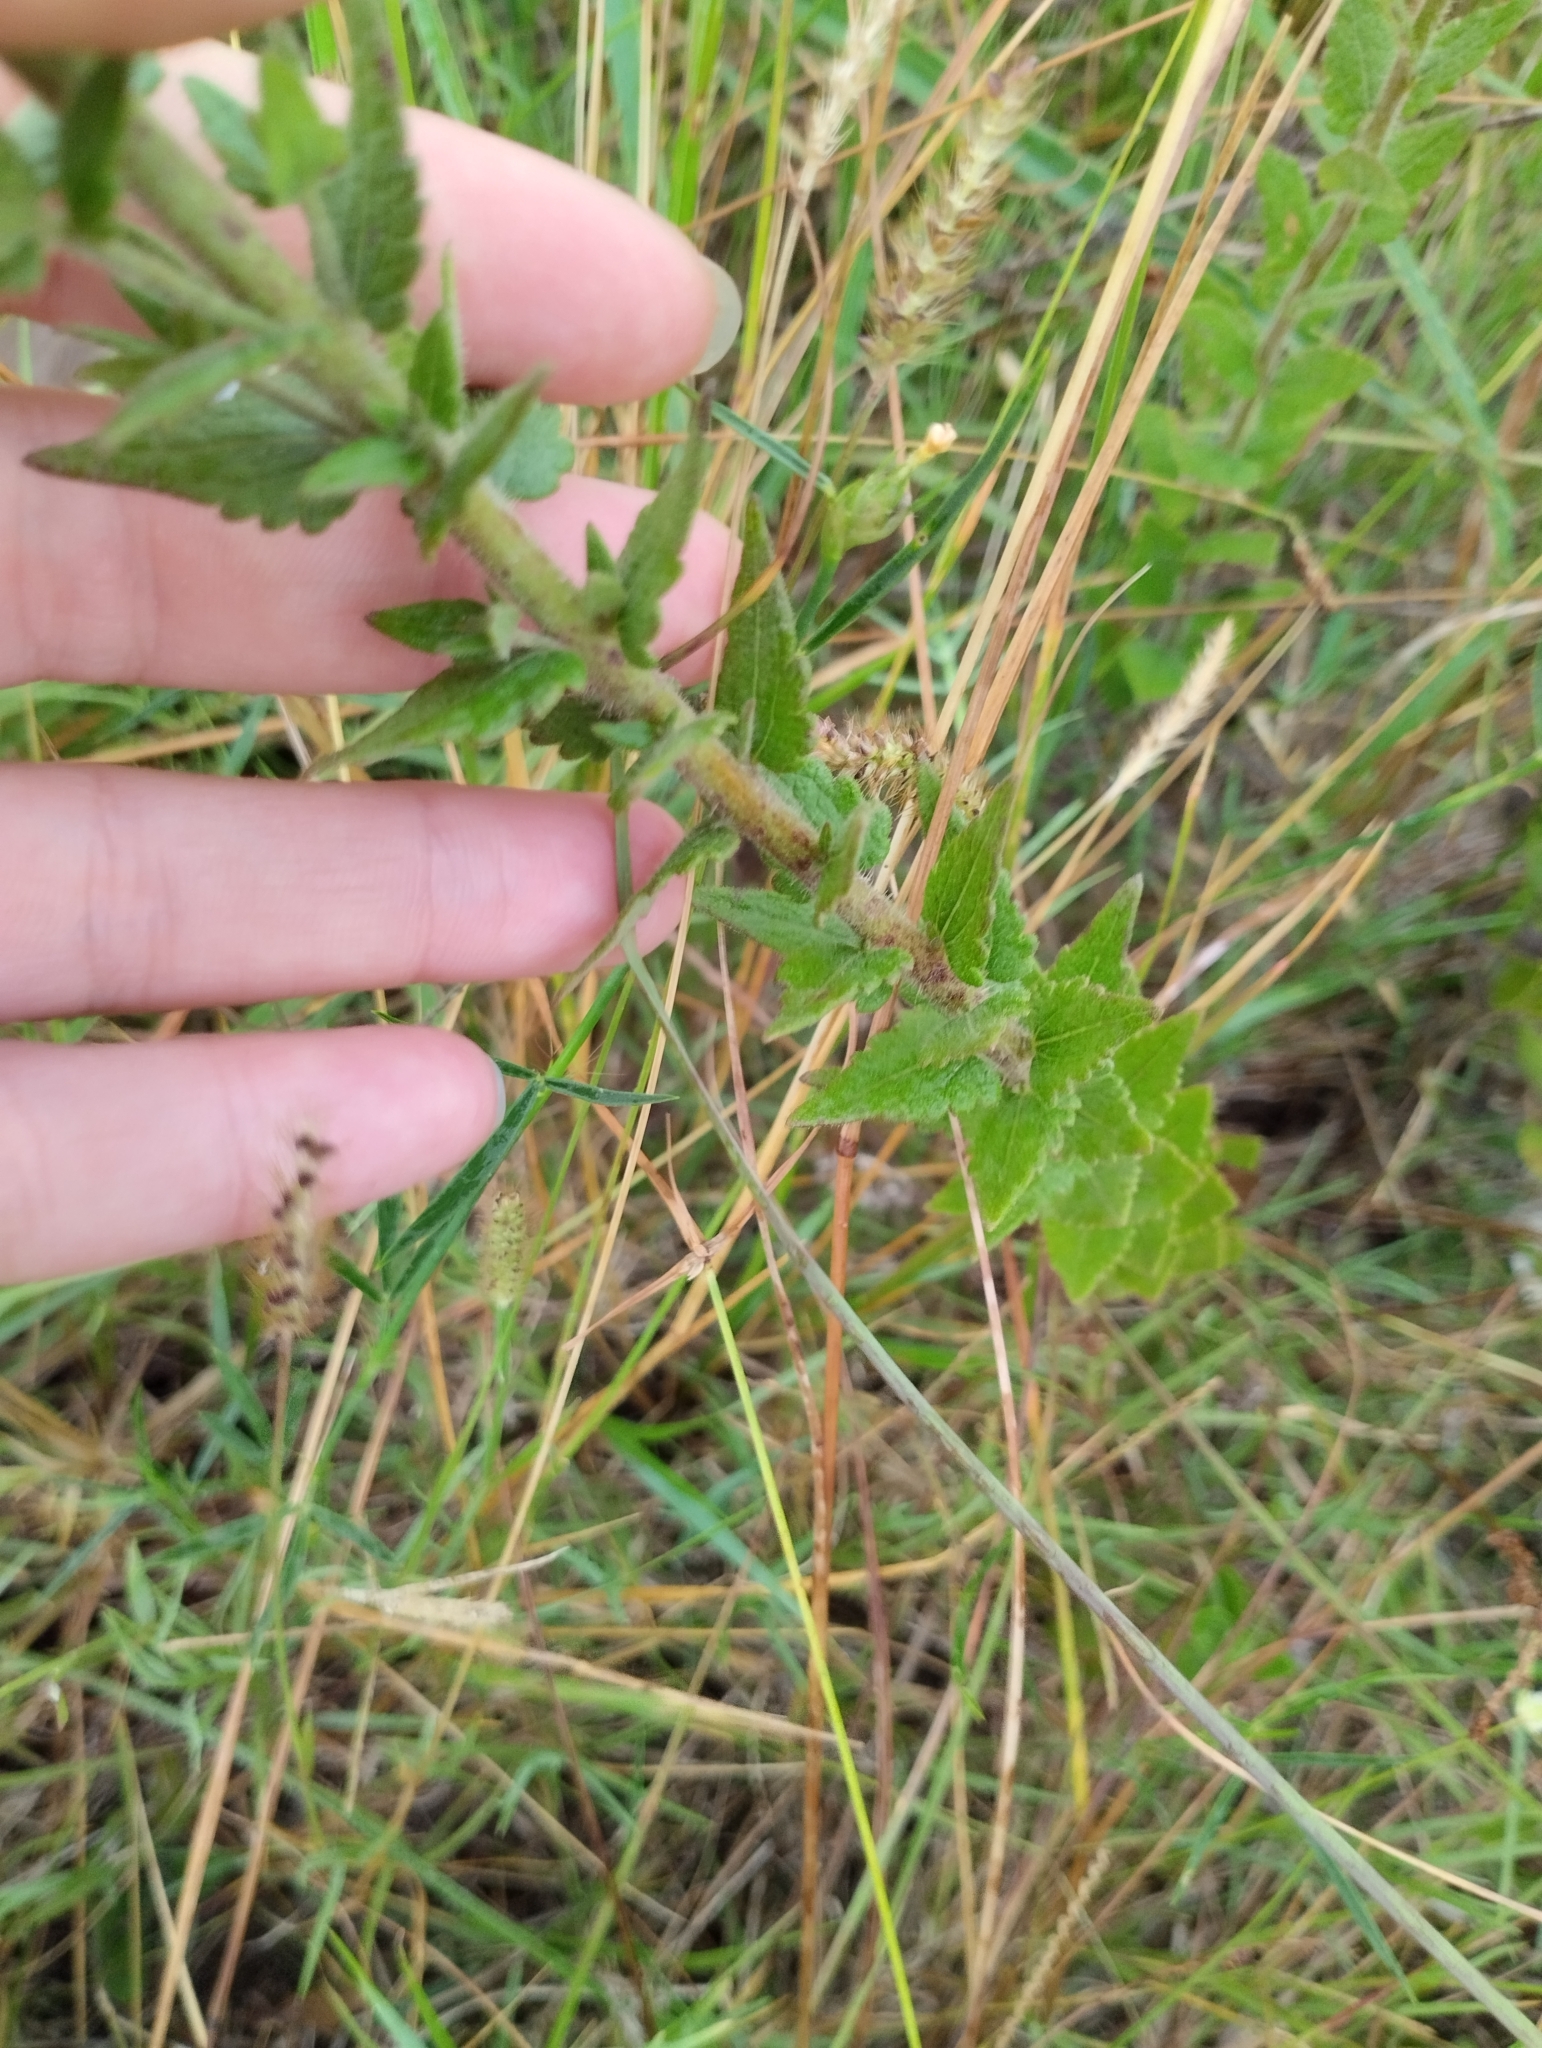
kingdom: Plantae
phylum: Tracheophyta
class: Magnoliopsida
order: Asterales
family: Asteraceae
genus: Chromolaena
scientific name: Chromolaena hirsuta
